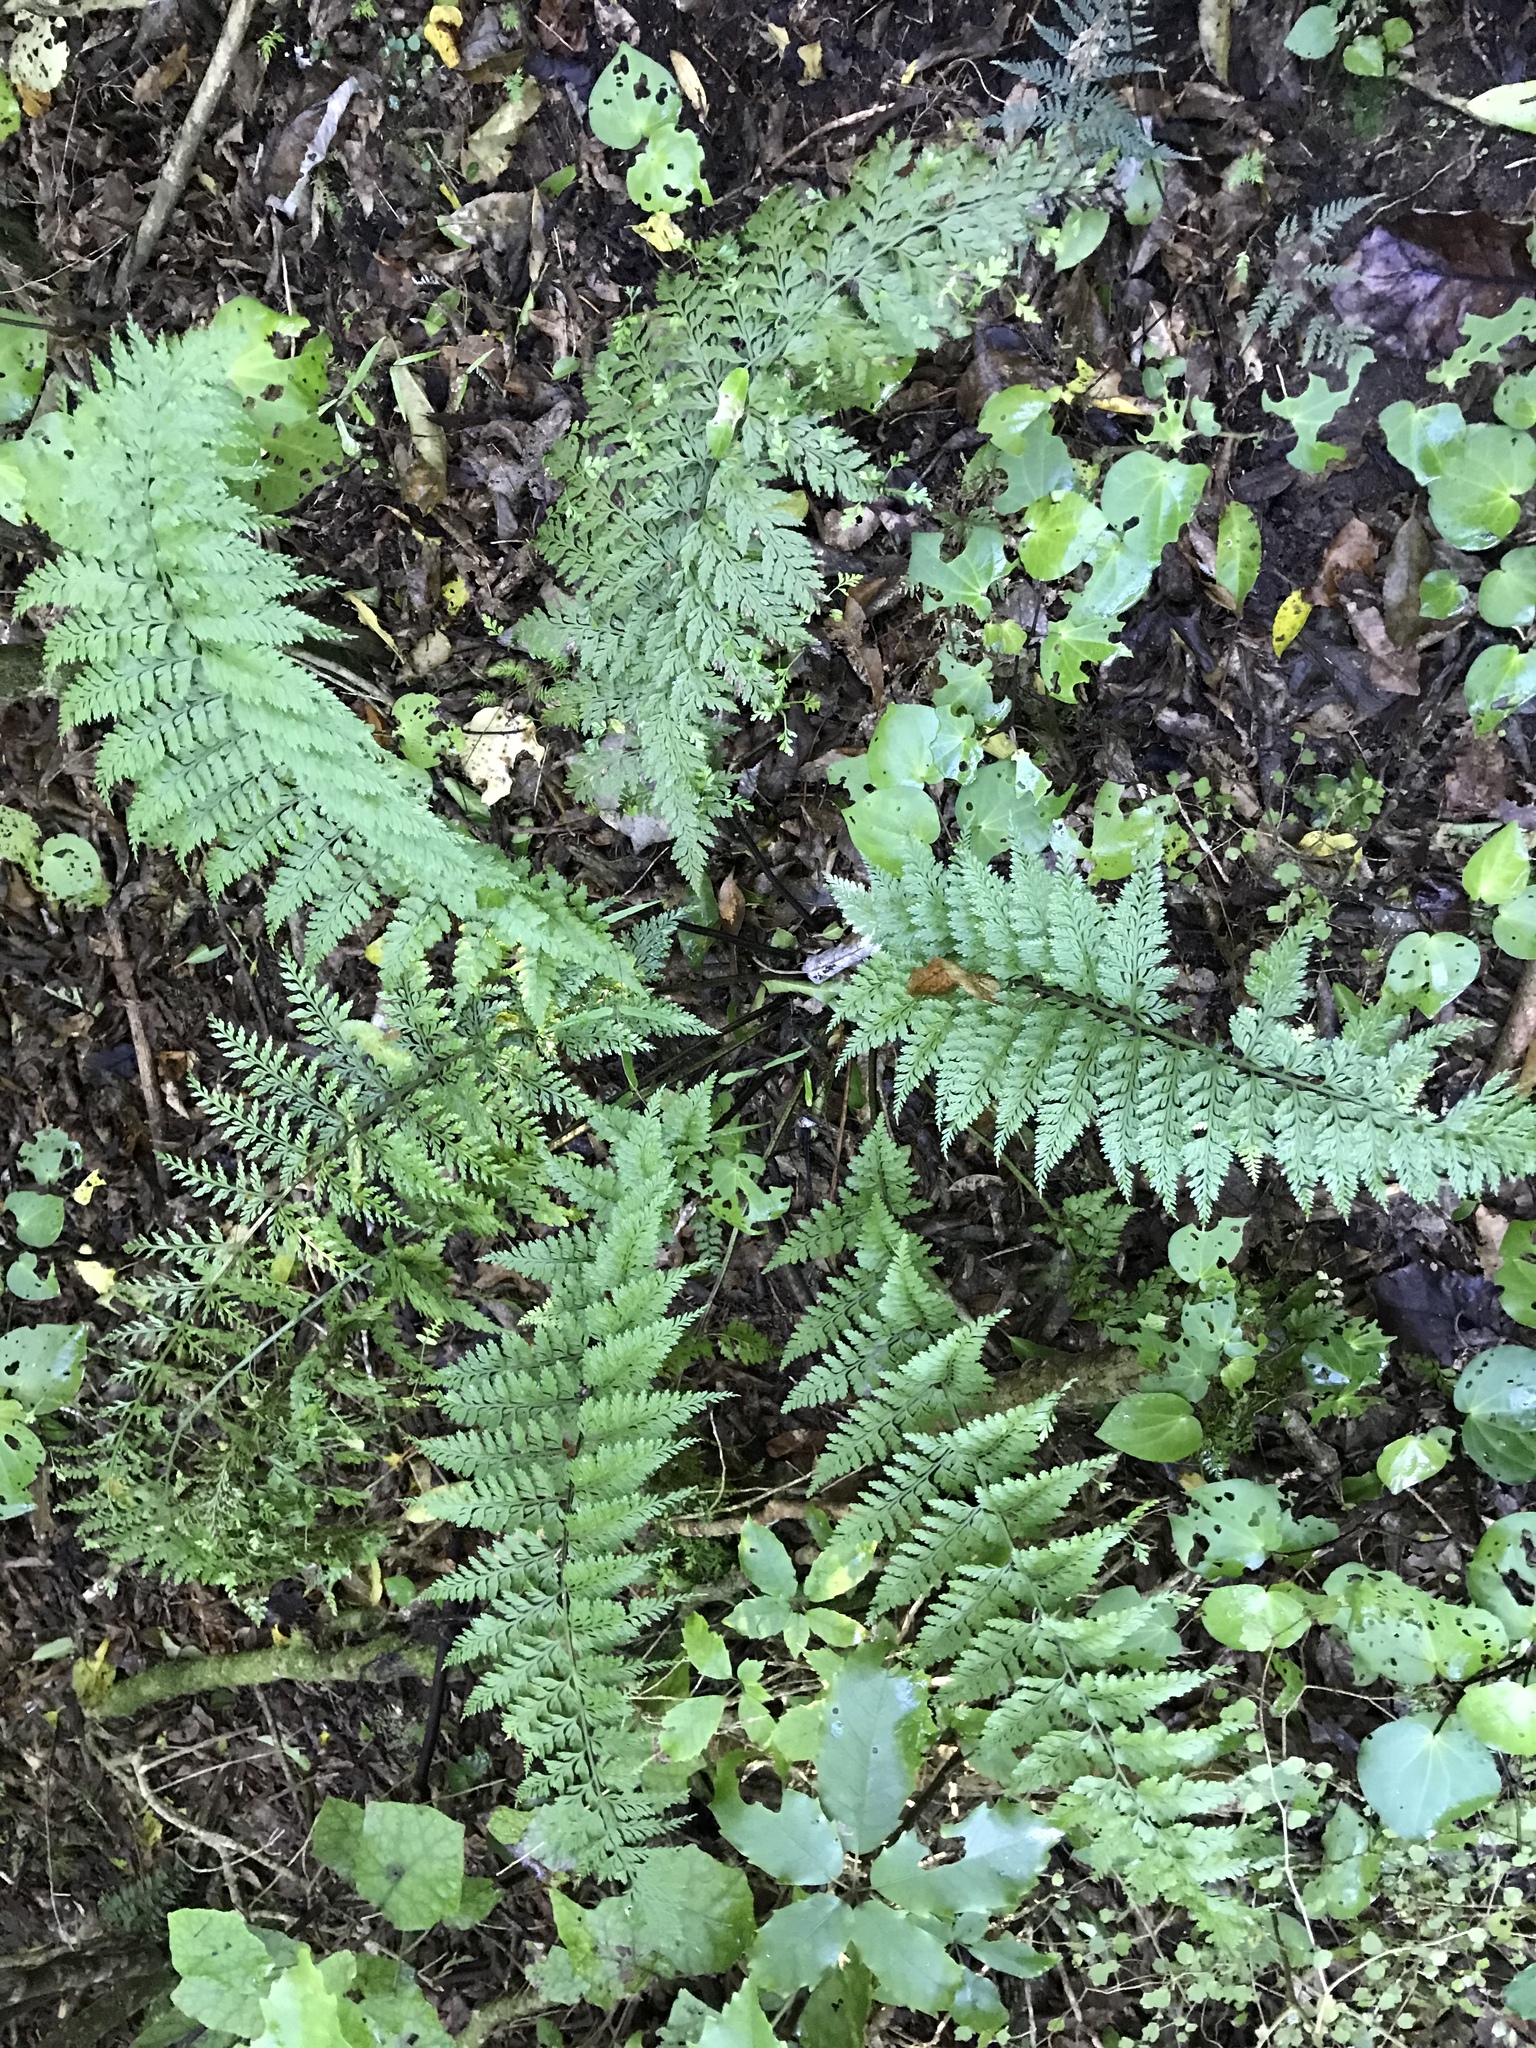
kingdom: Plantae
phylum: Tracheophyta
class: Polypodiopsida
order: Polypodiales
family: Aspleniaceae
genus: Asplenium
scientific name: Asplenium bulbiferum
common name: Mother fern
